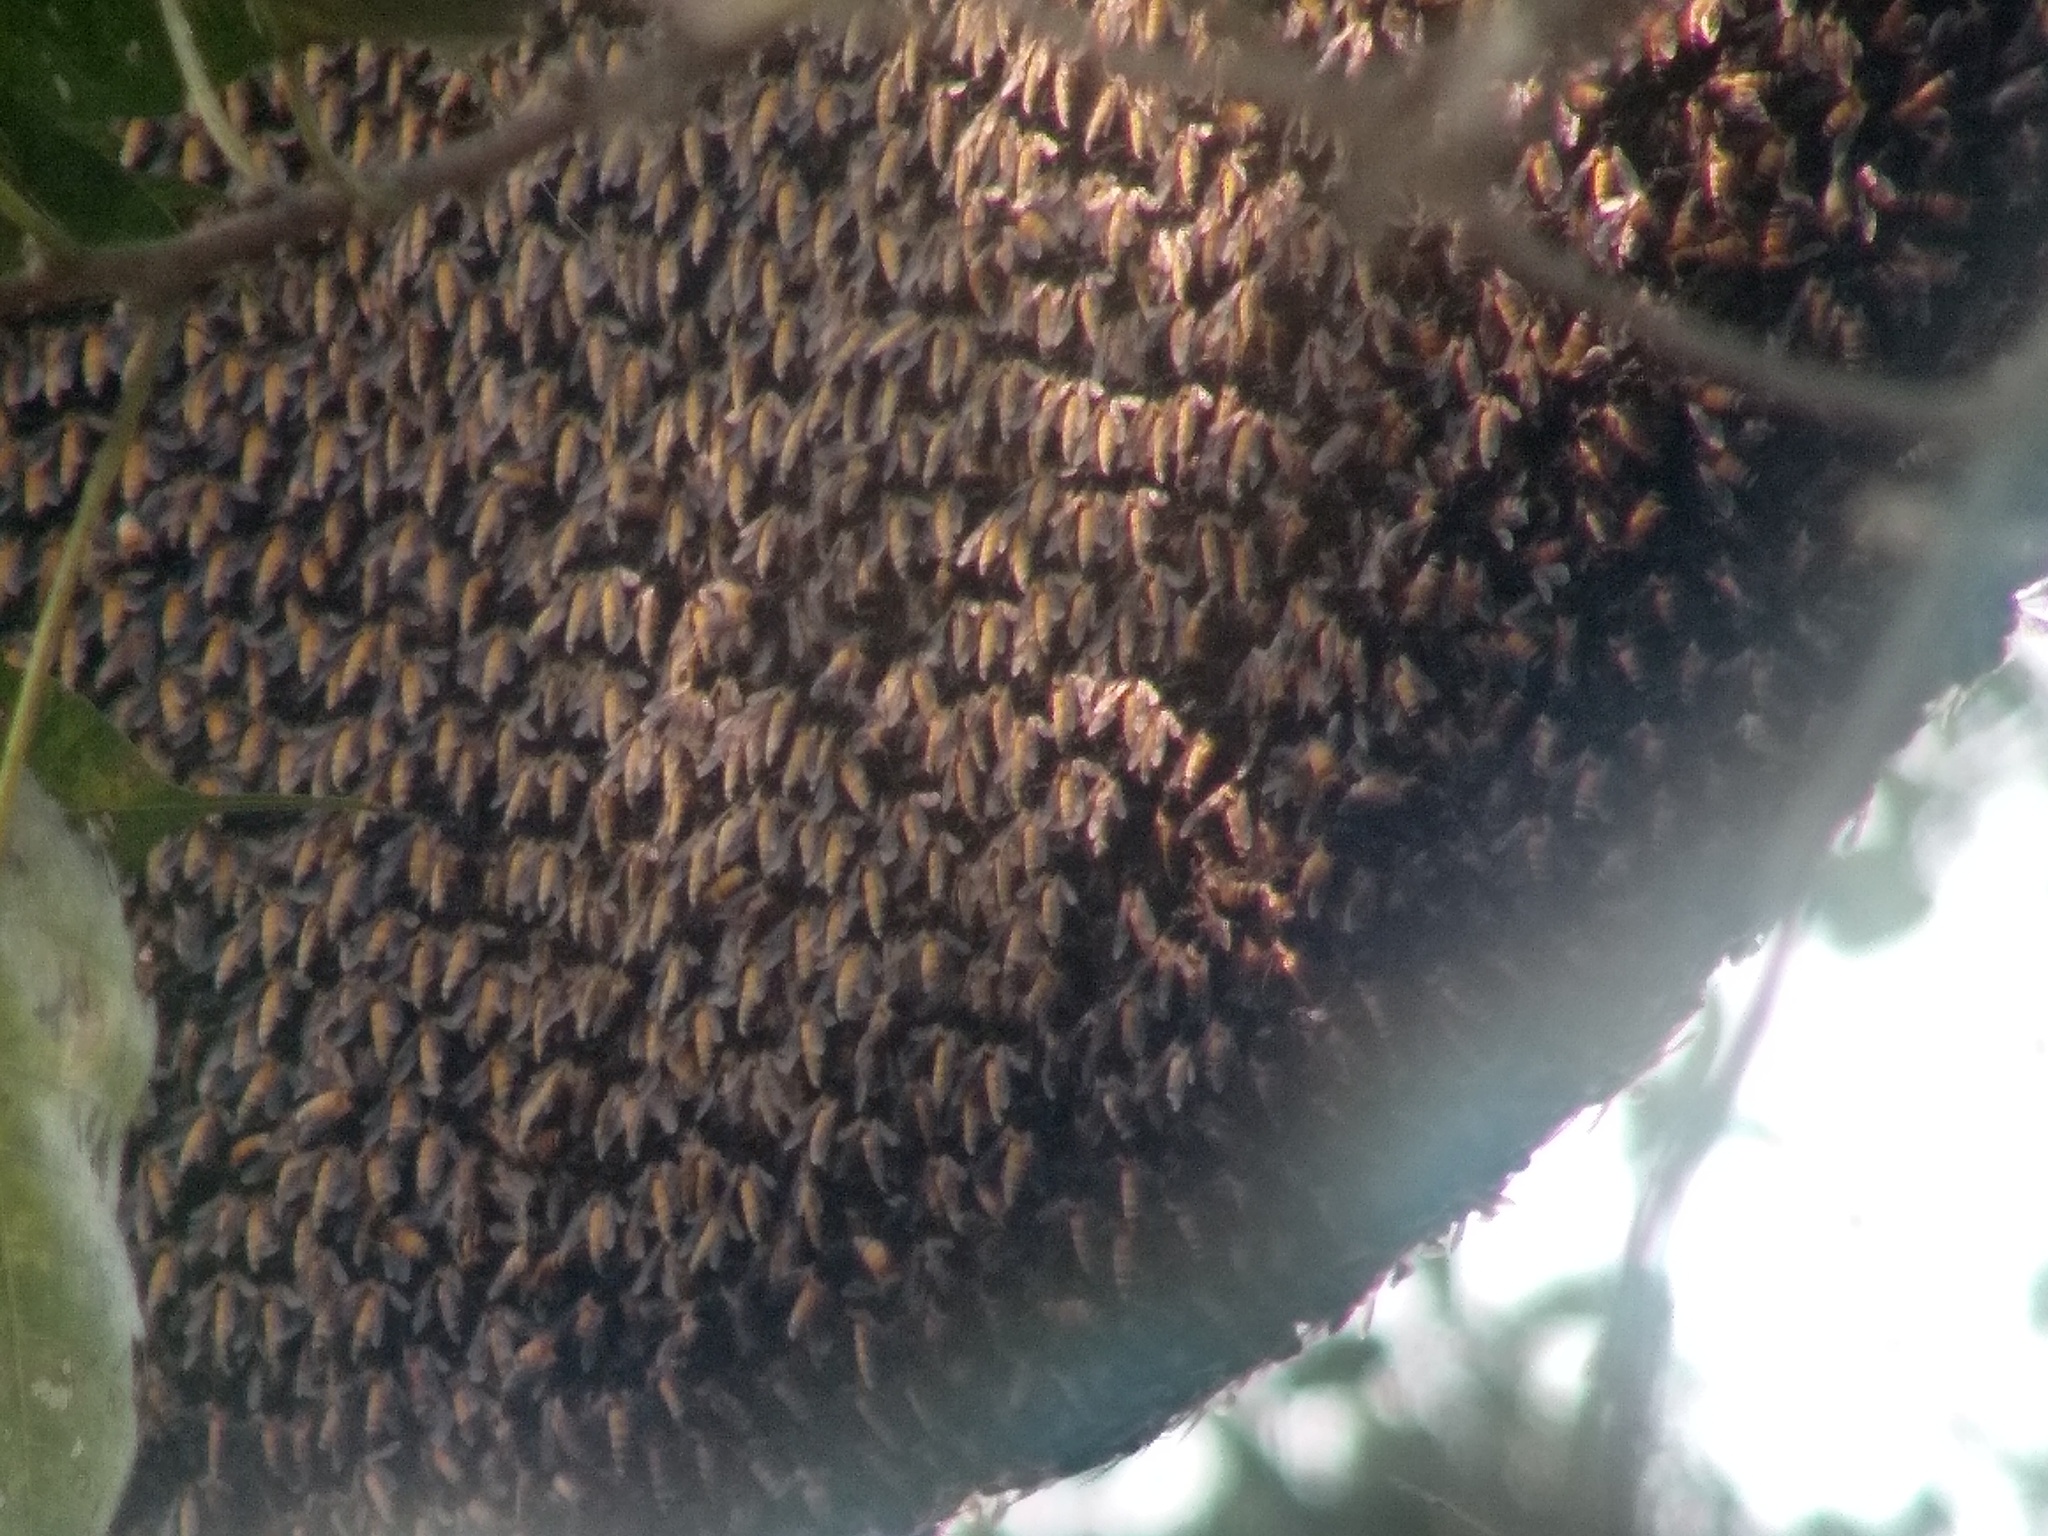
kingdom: Animalia
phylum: Arthropoda
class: Insecta
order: Hymenoptera
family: Apidae
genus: Apis
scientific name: Apis dorsata
